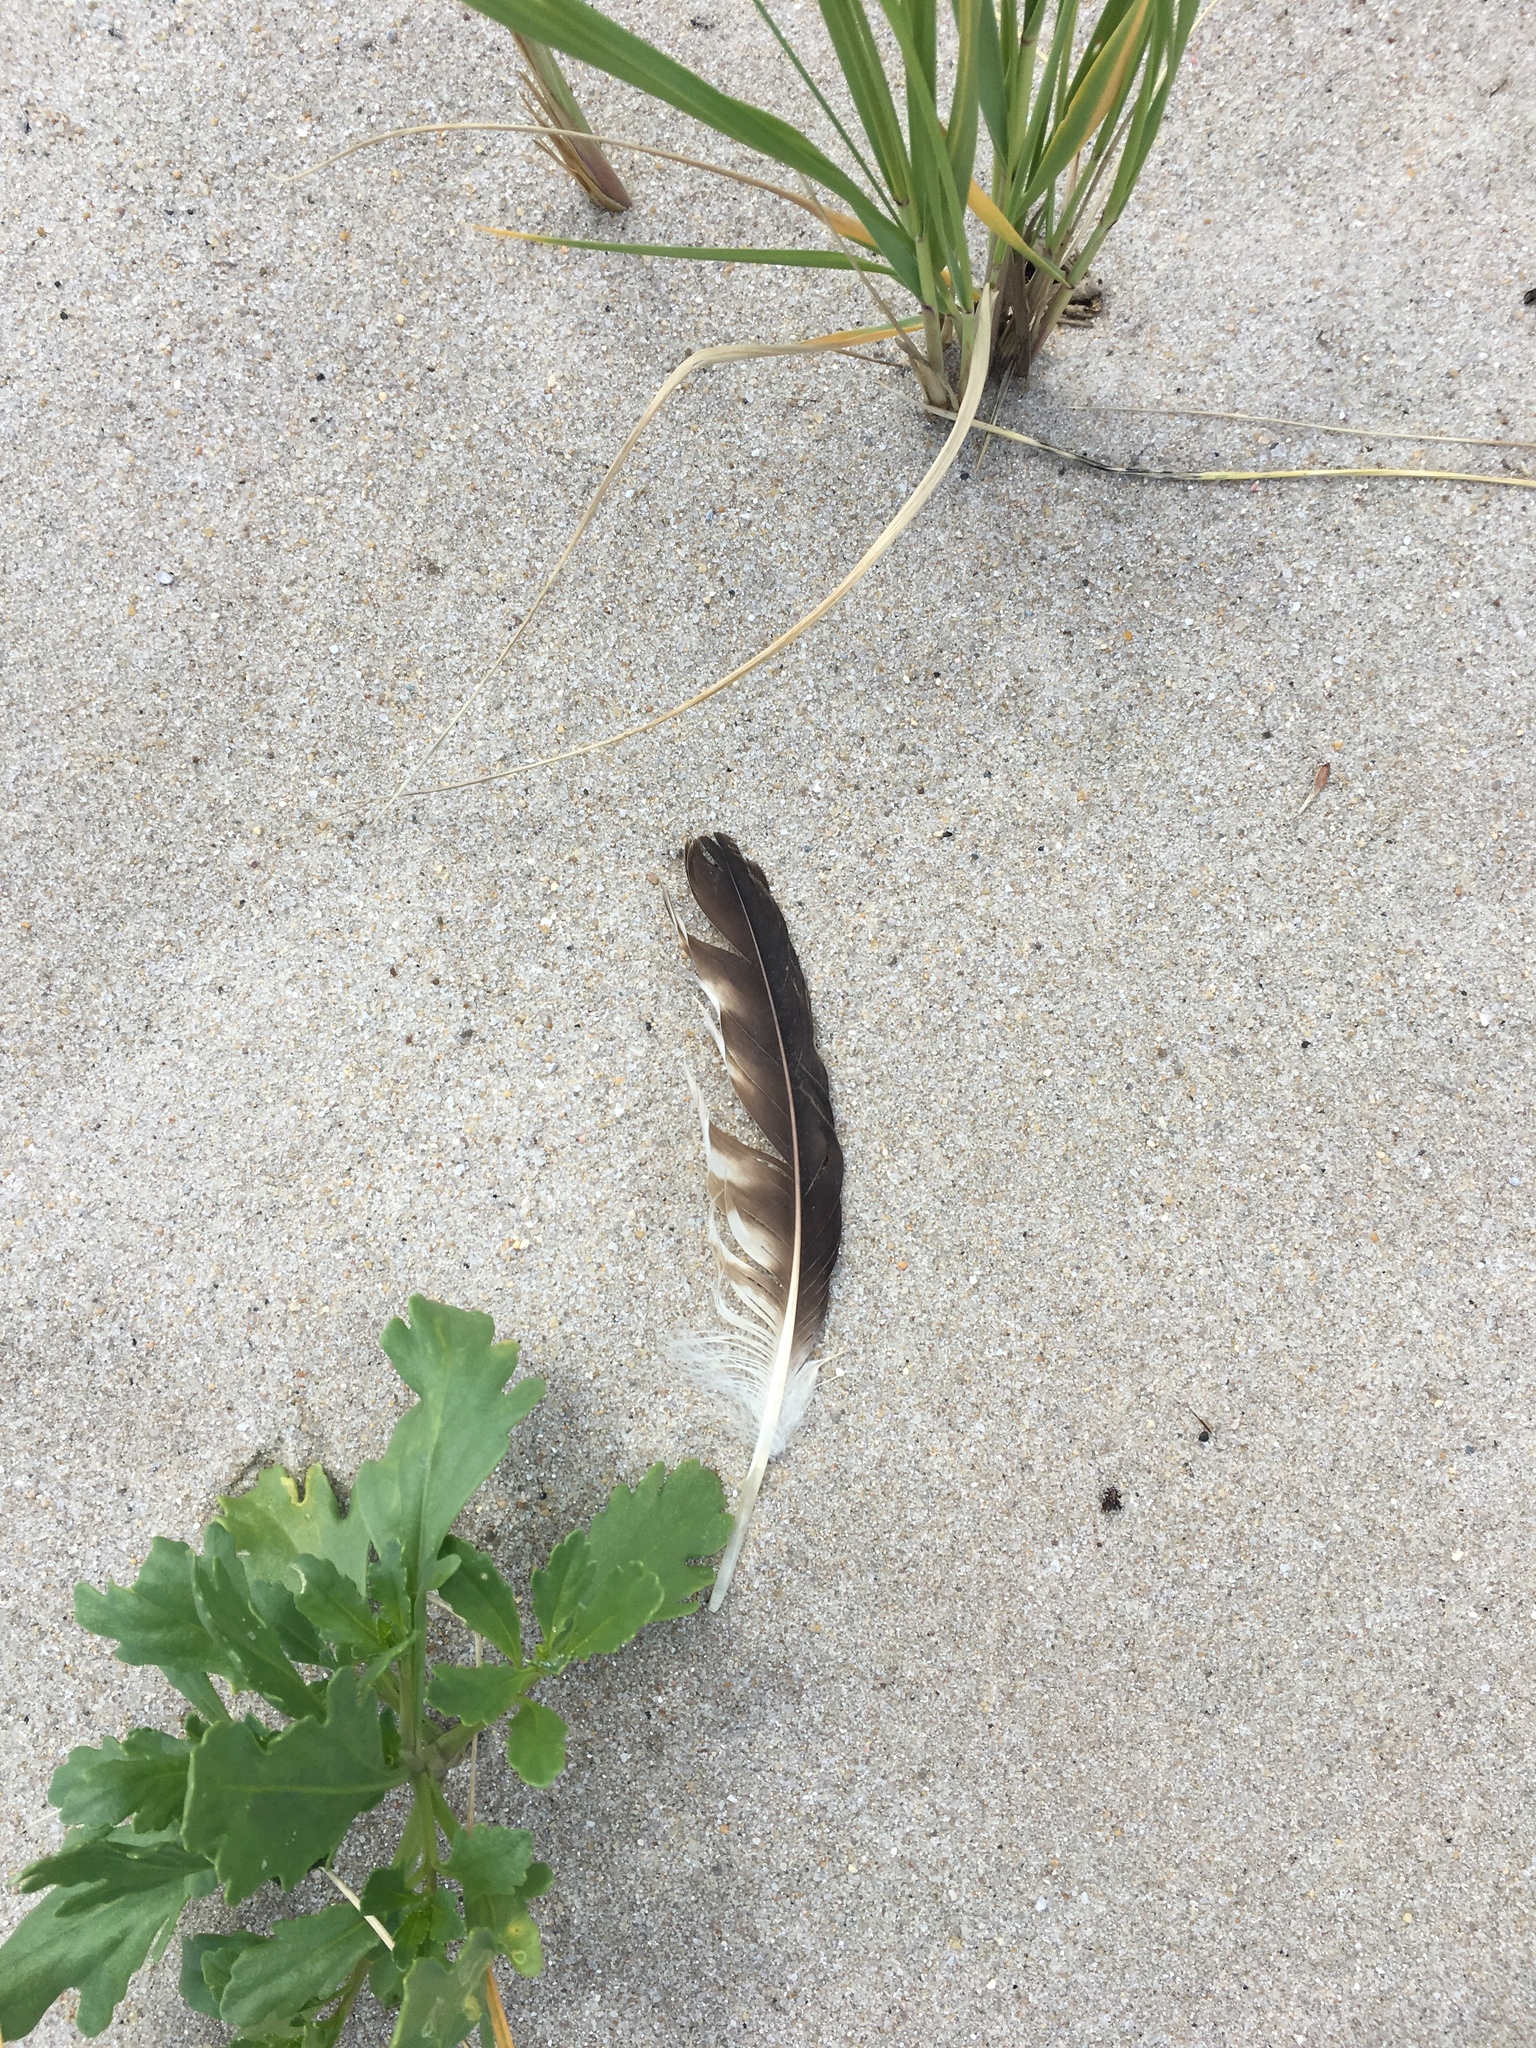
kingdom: Animalia
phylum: Chordata
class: Aves
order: Accipitriformes
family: Pandionidae
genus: Pandion
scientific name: Pandion haliaetus
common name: Osprey
